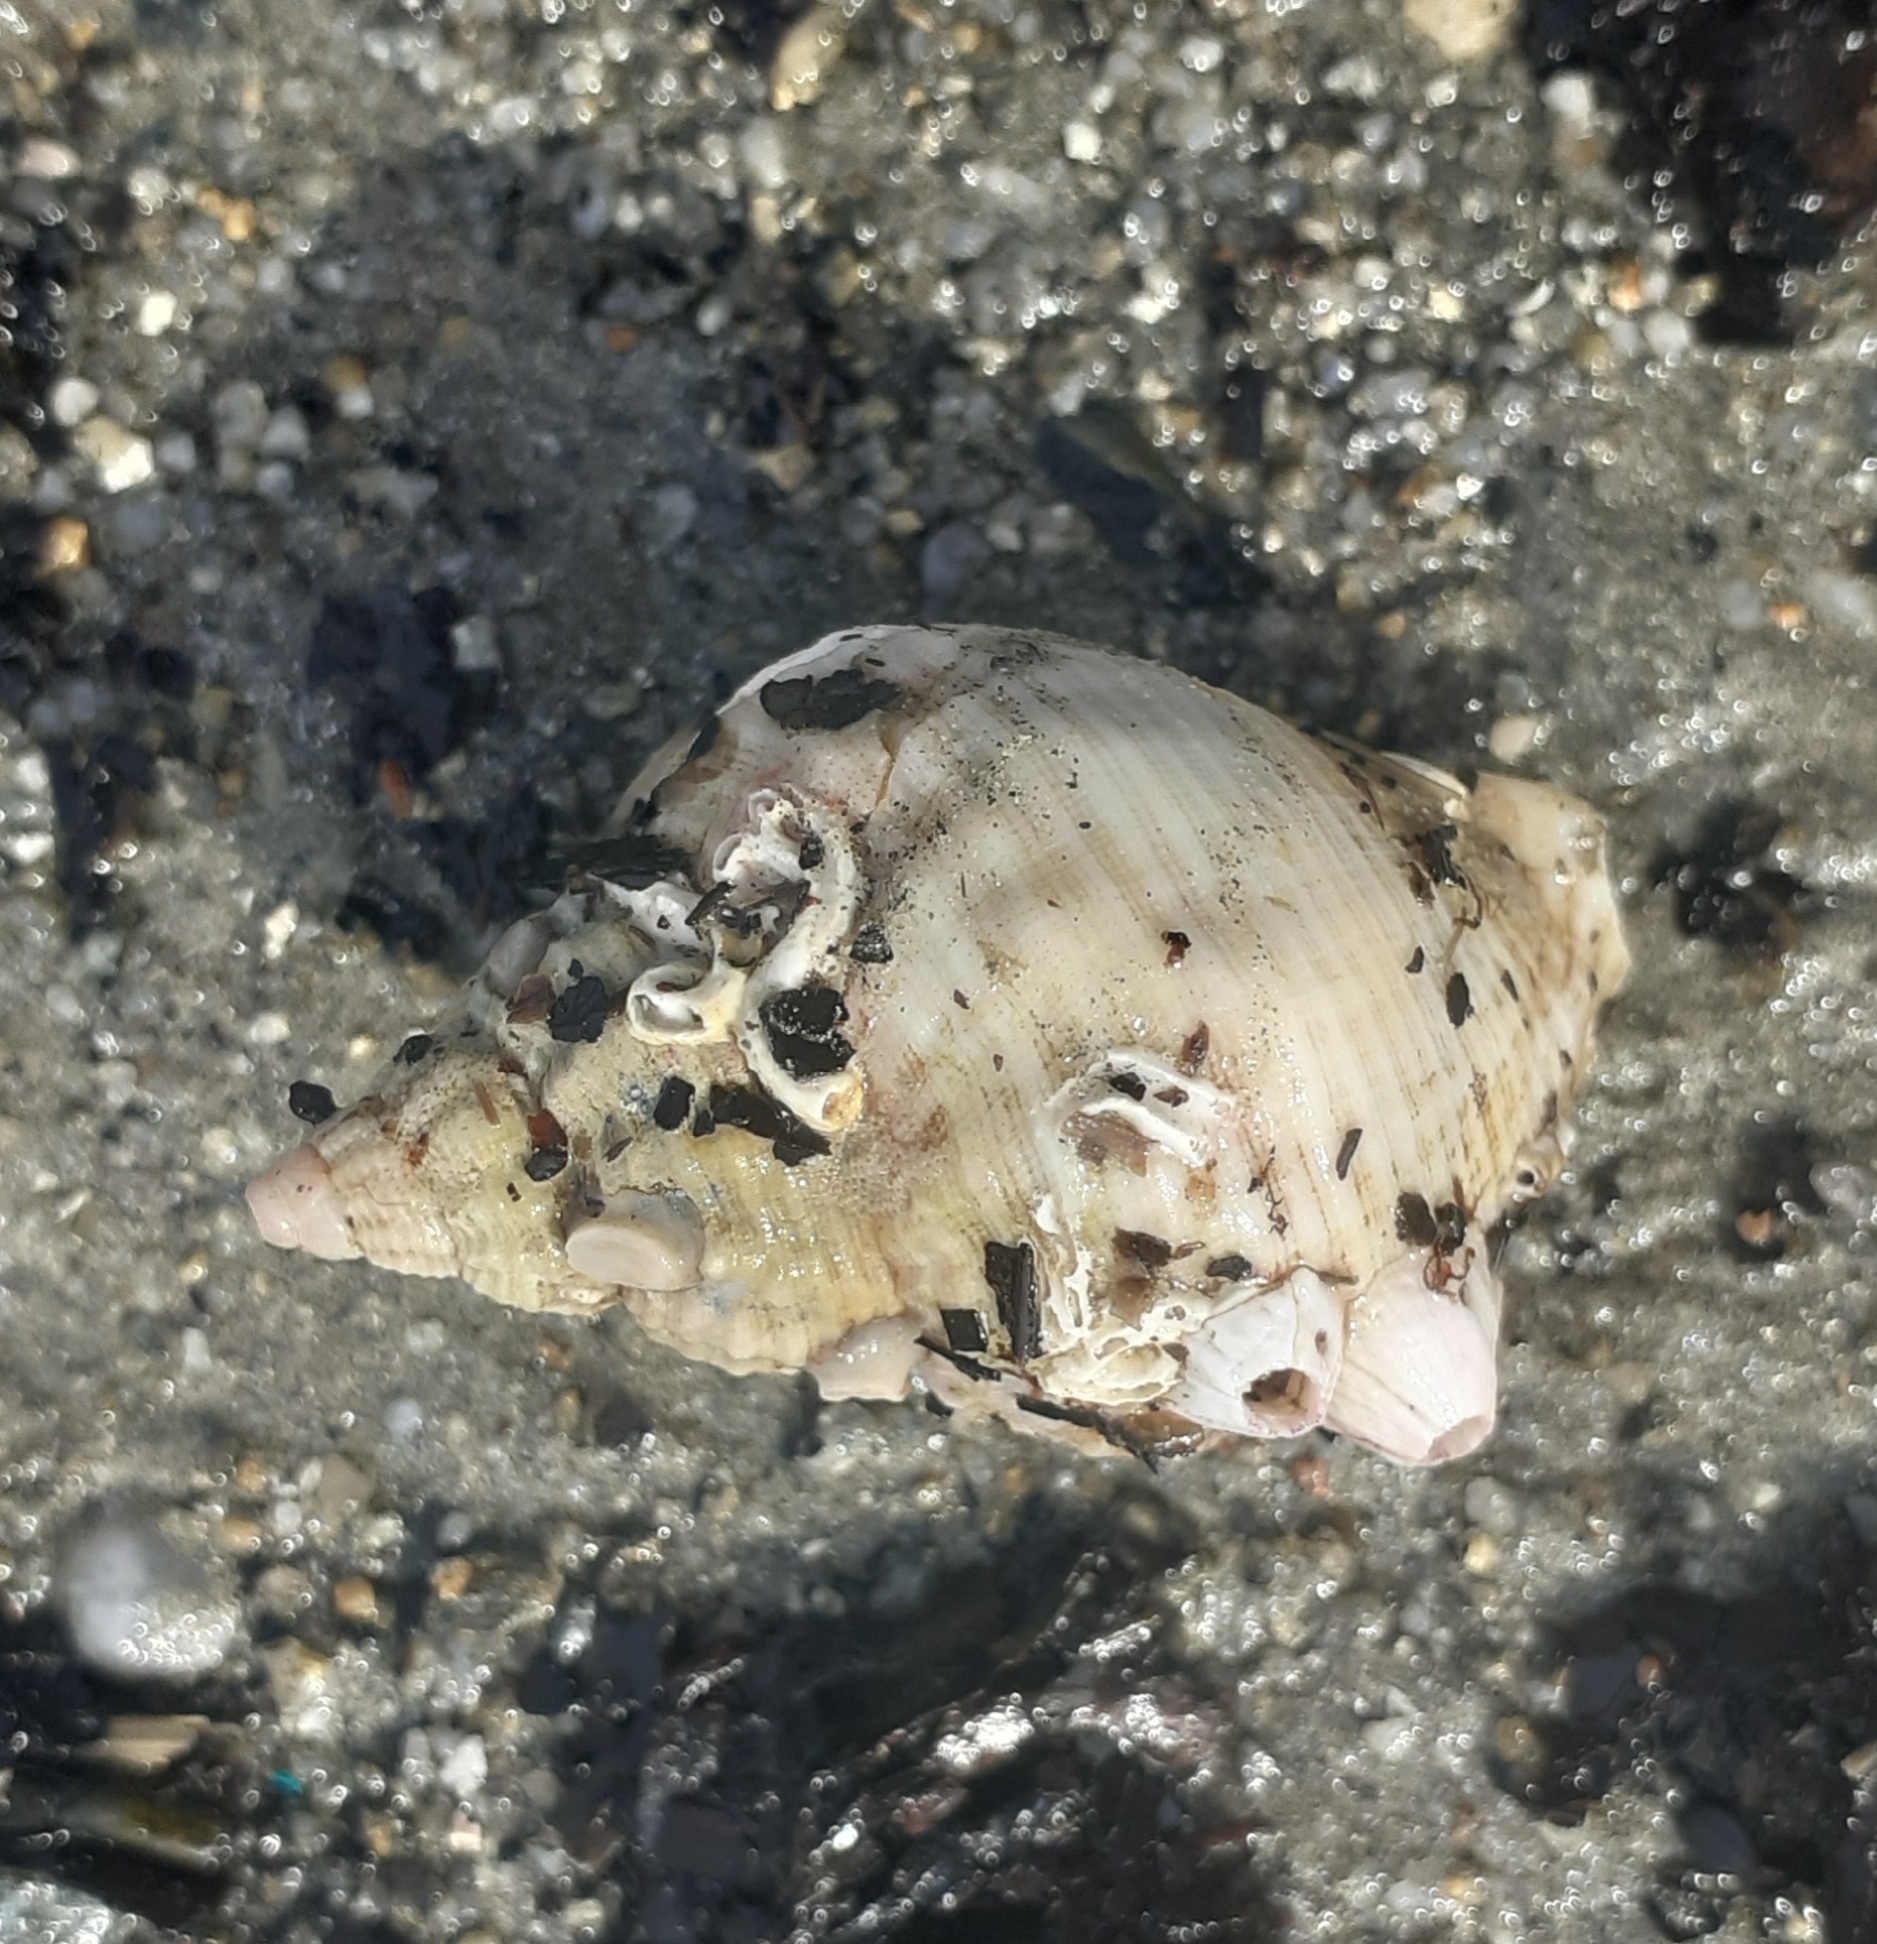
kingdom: Animalia
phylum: Mollusca
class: Gastropoda
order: Neogastropoda
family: Buccinidae
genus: Buccinum
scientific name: Buccinum undatum
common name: Common whelk
